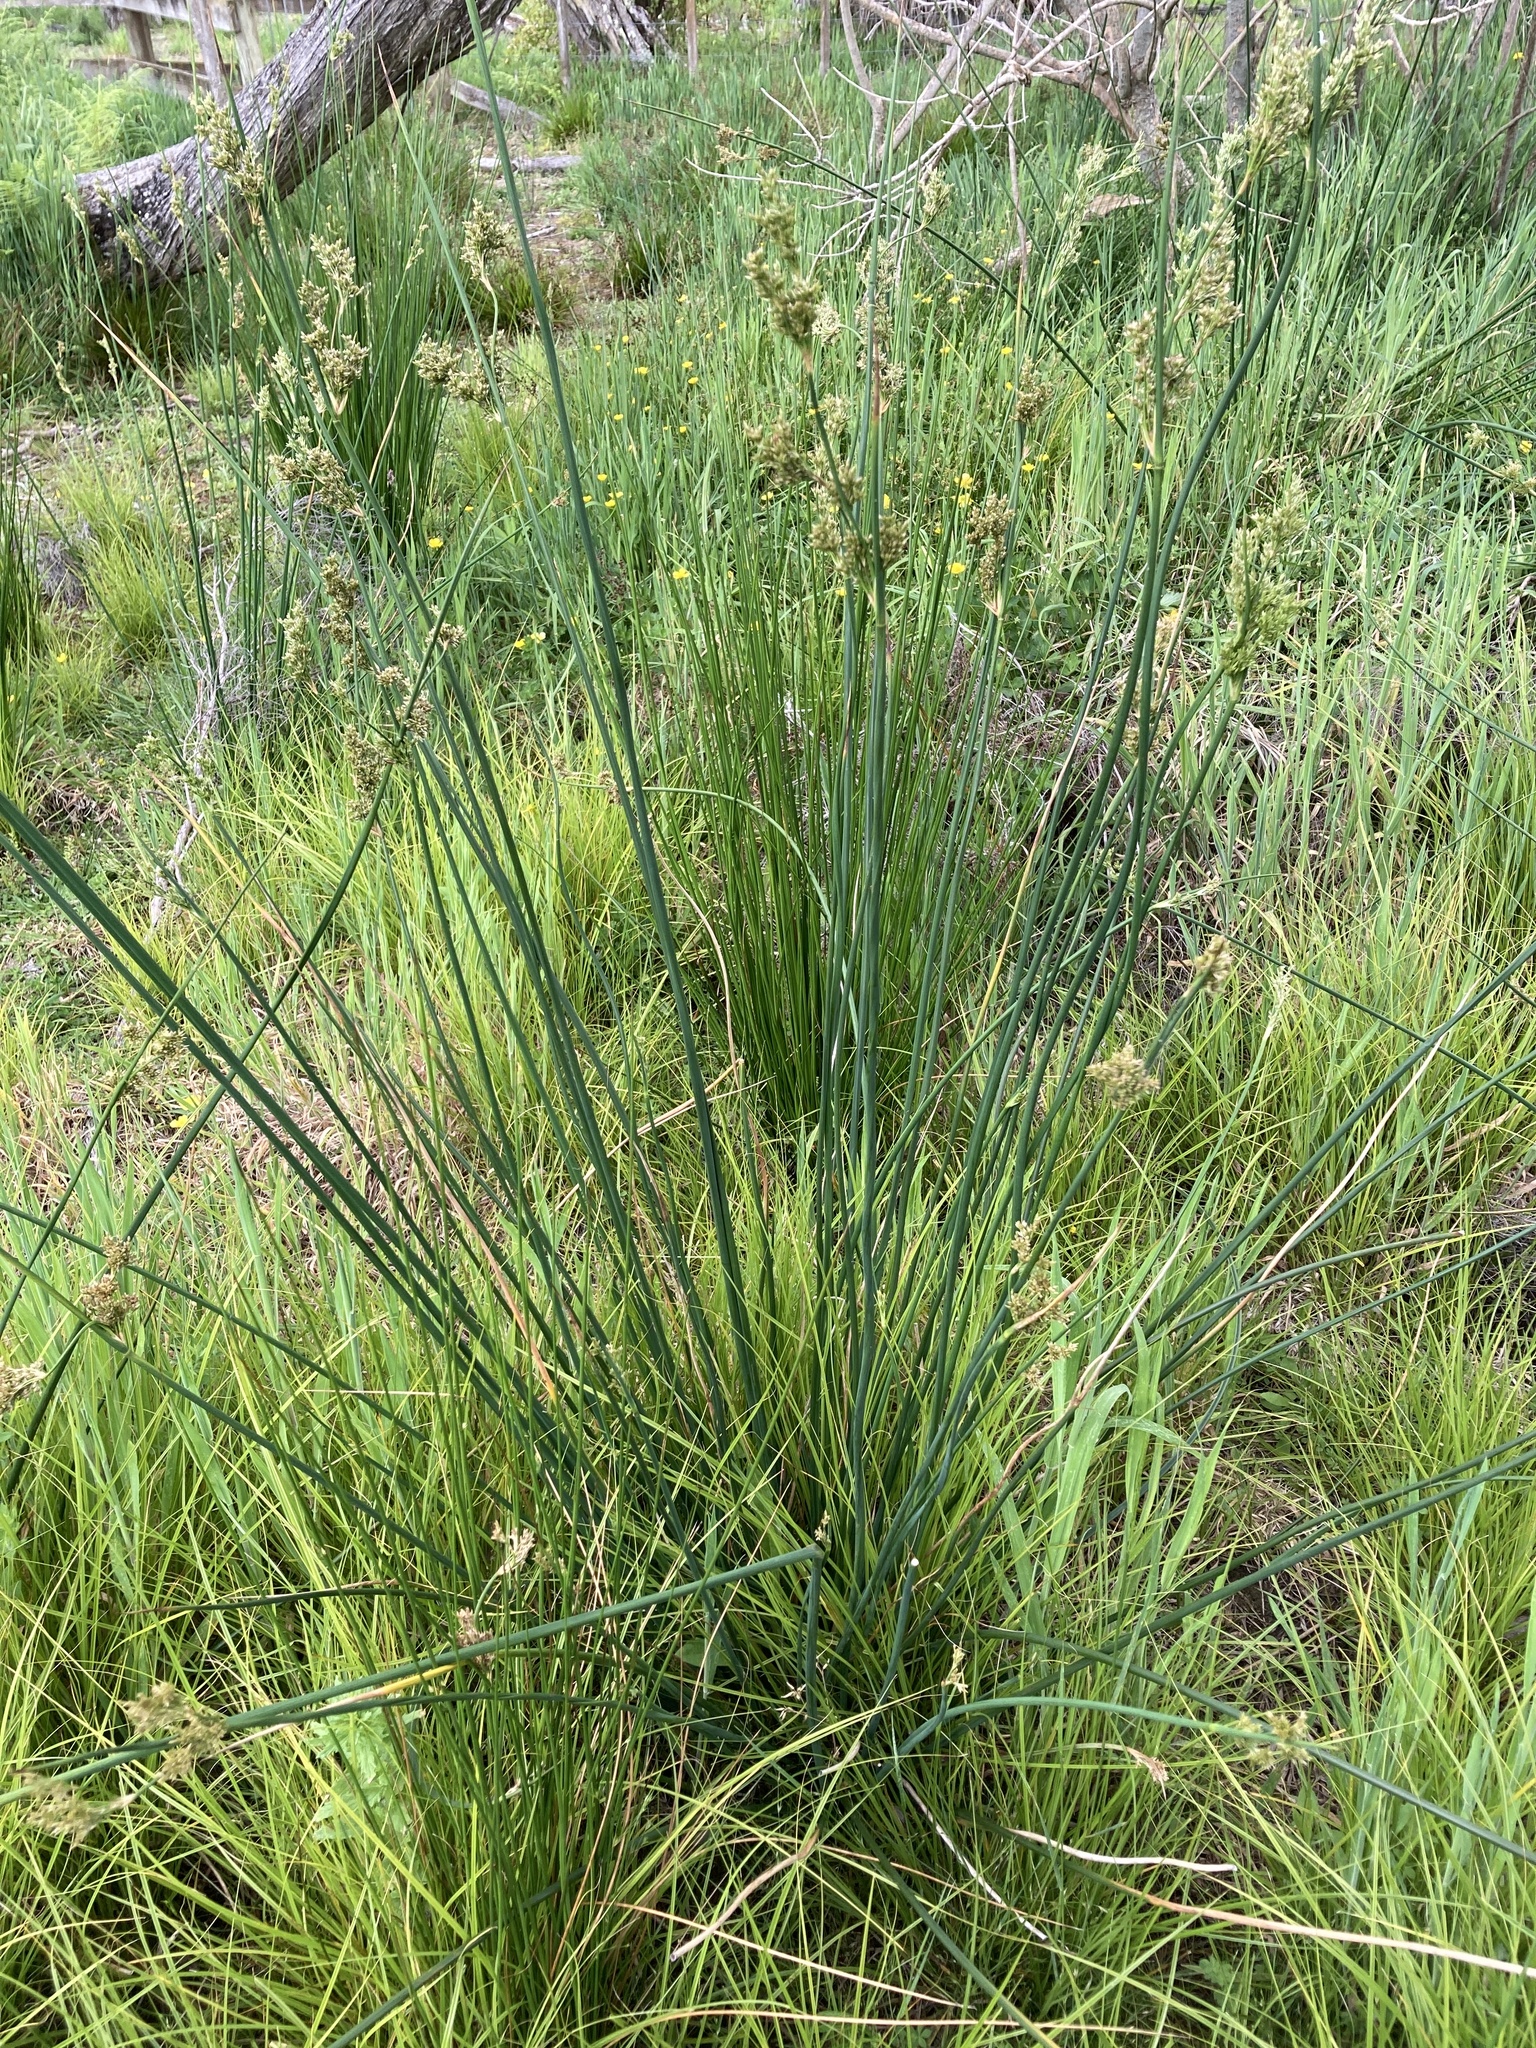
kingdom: Plantae
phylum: Tracheophyta
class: Liliopsida
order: Poales
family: Juncaceae
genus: Juncus
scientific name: Juncus pallidus
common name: Great soft-rush
